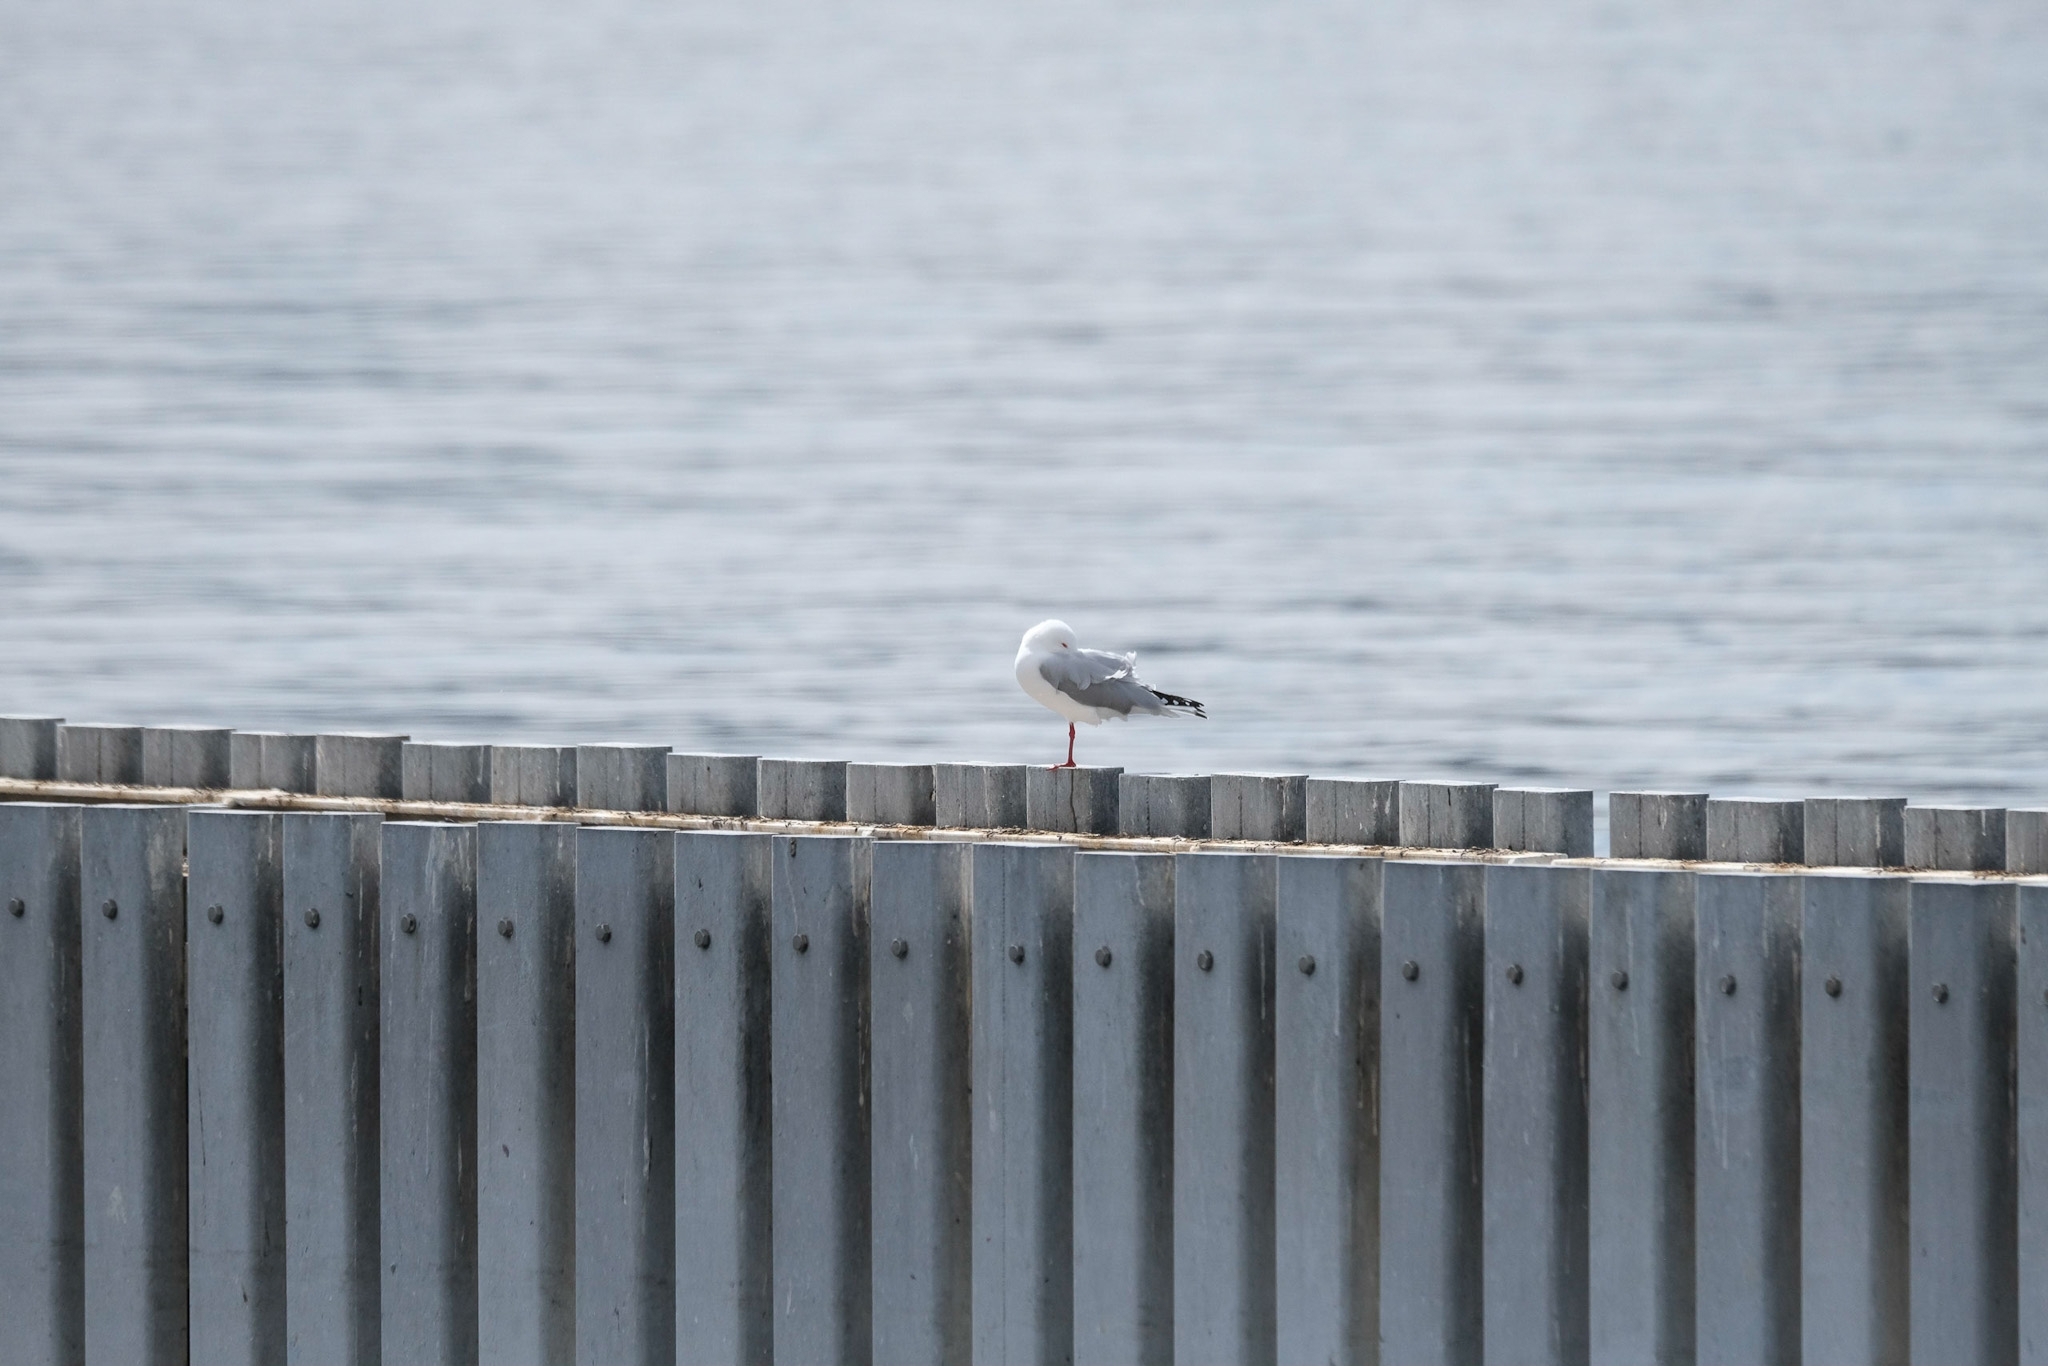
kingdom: Animalia
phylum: Chordata
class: Aves
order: Charadriiformes
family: Laridae
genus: Chroicocephalus
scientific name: Chroicocephalus novaehollandiae
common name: Silver gull
